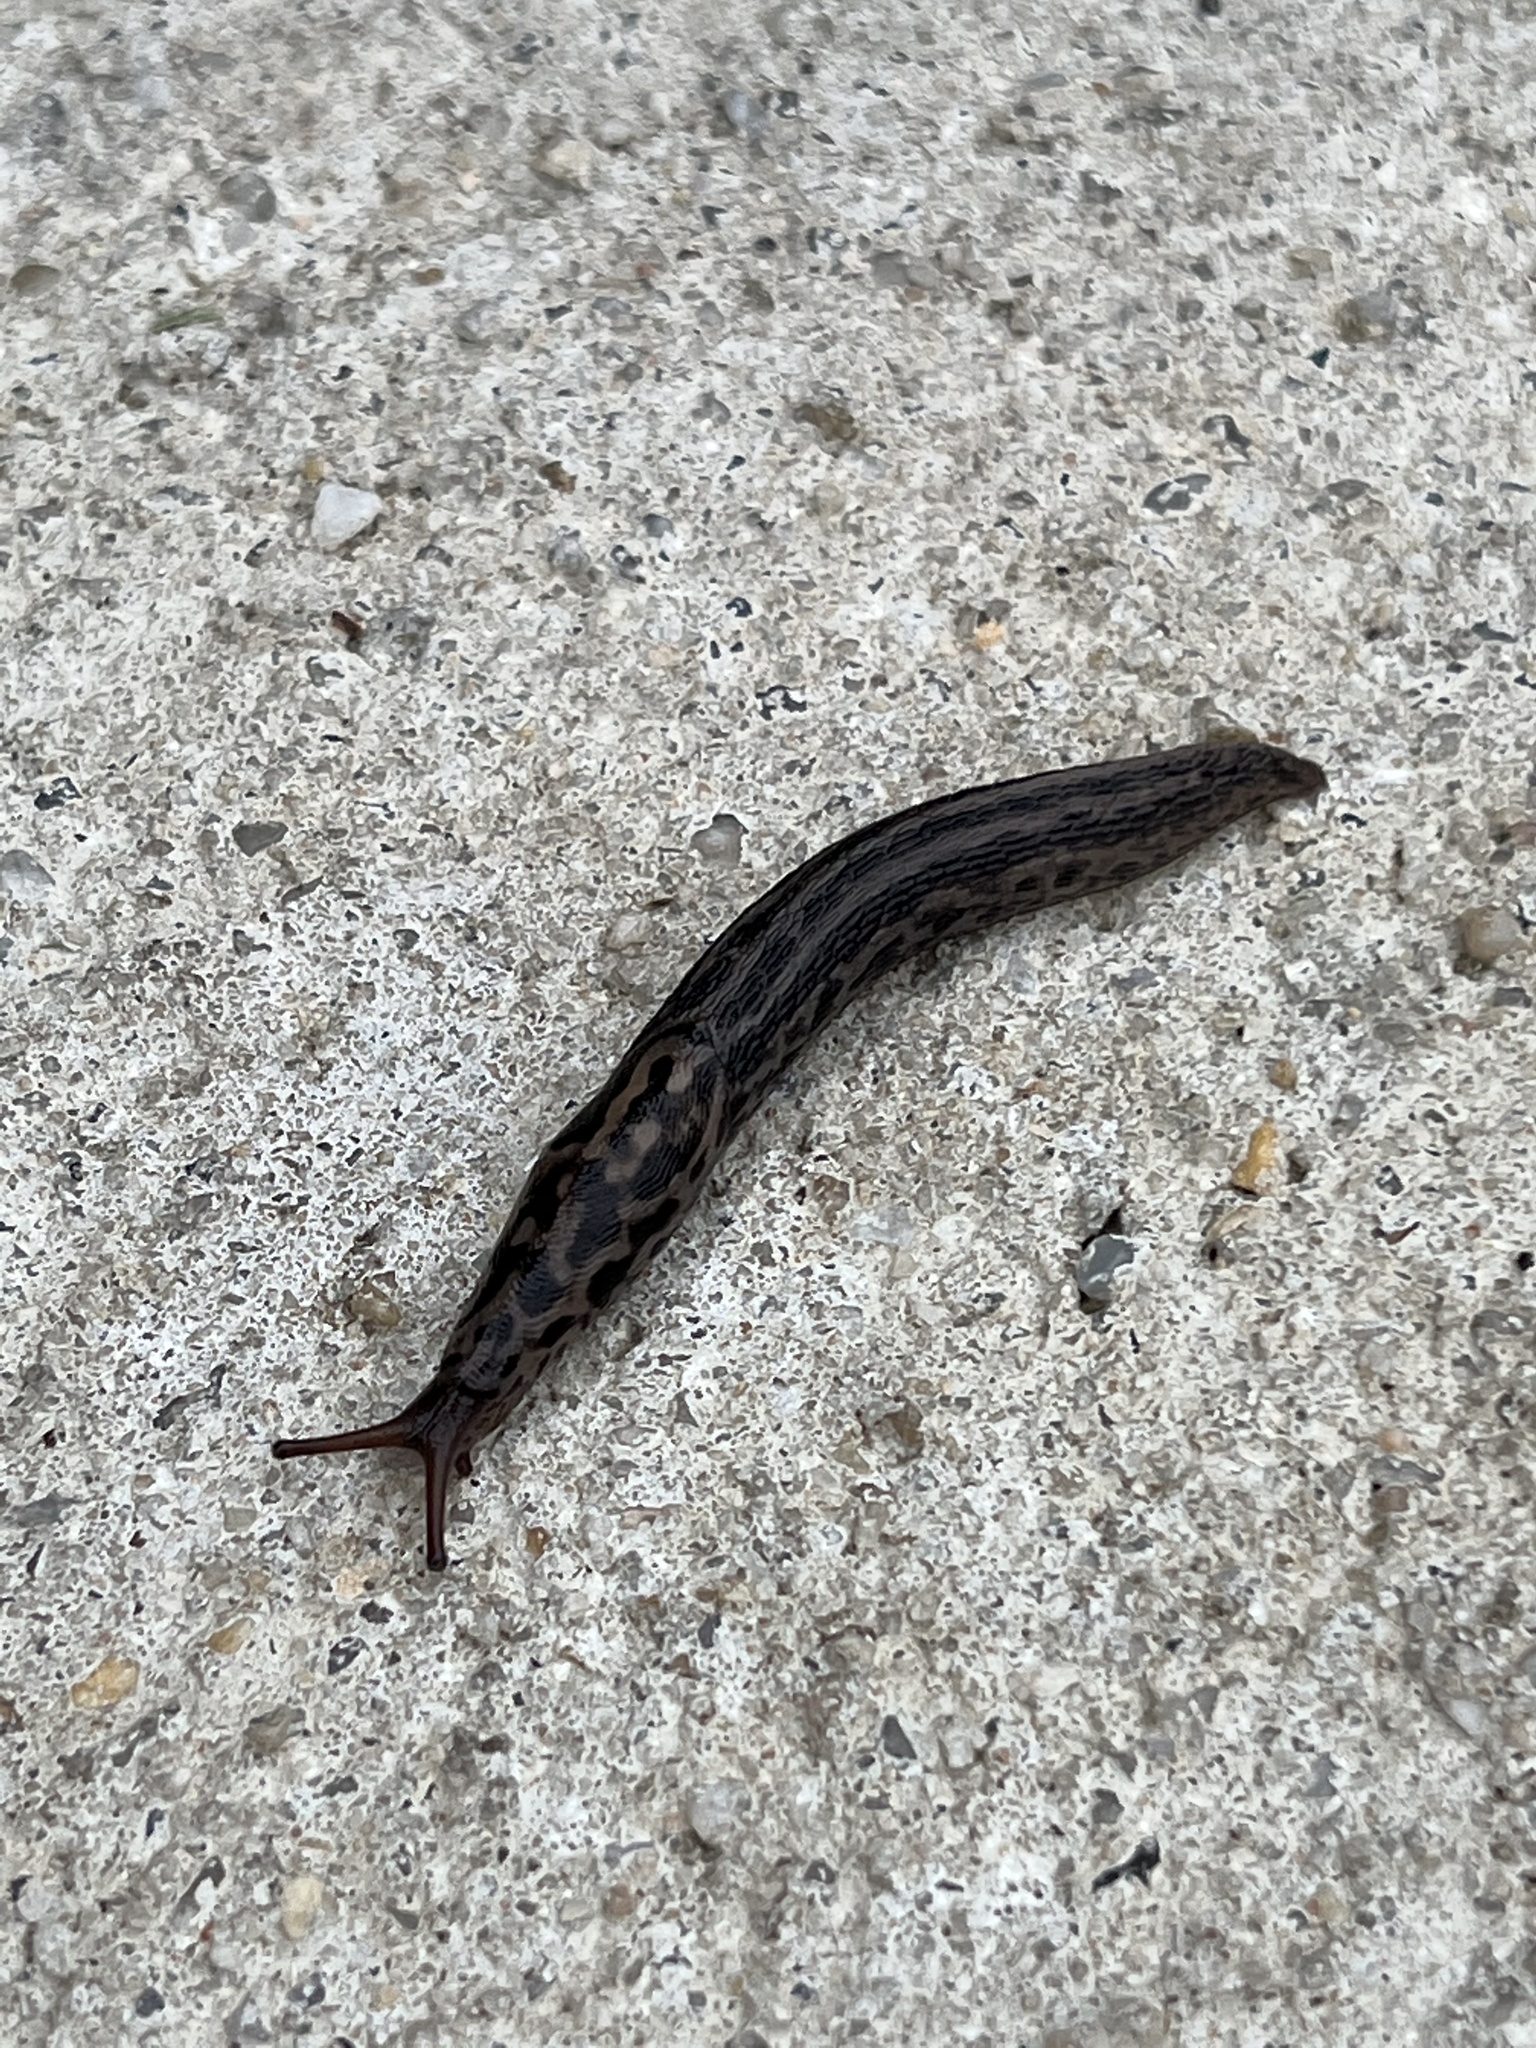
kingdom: Animalia
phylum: Mollusca
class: Gastropoda
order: Stylommatophora
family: Limacidae
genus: Limax
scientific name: Limax maximus
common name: Great grey slug
